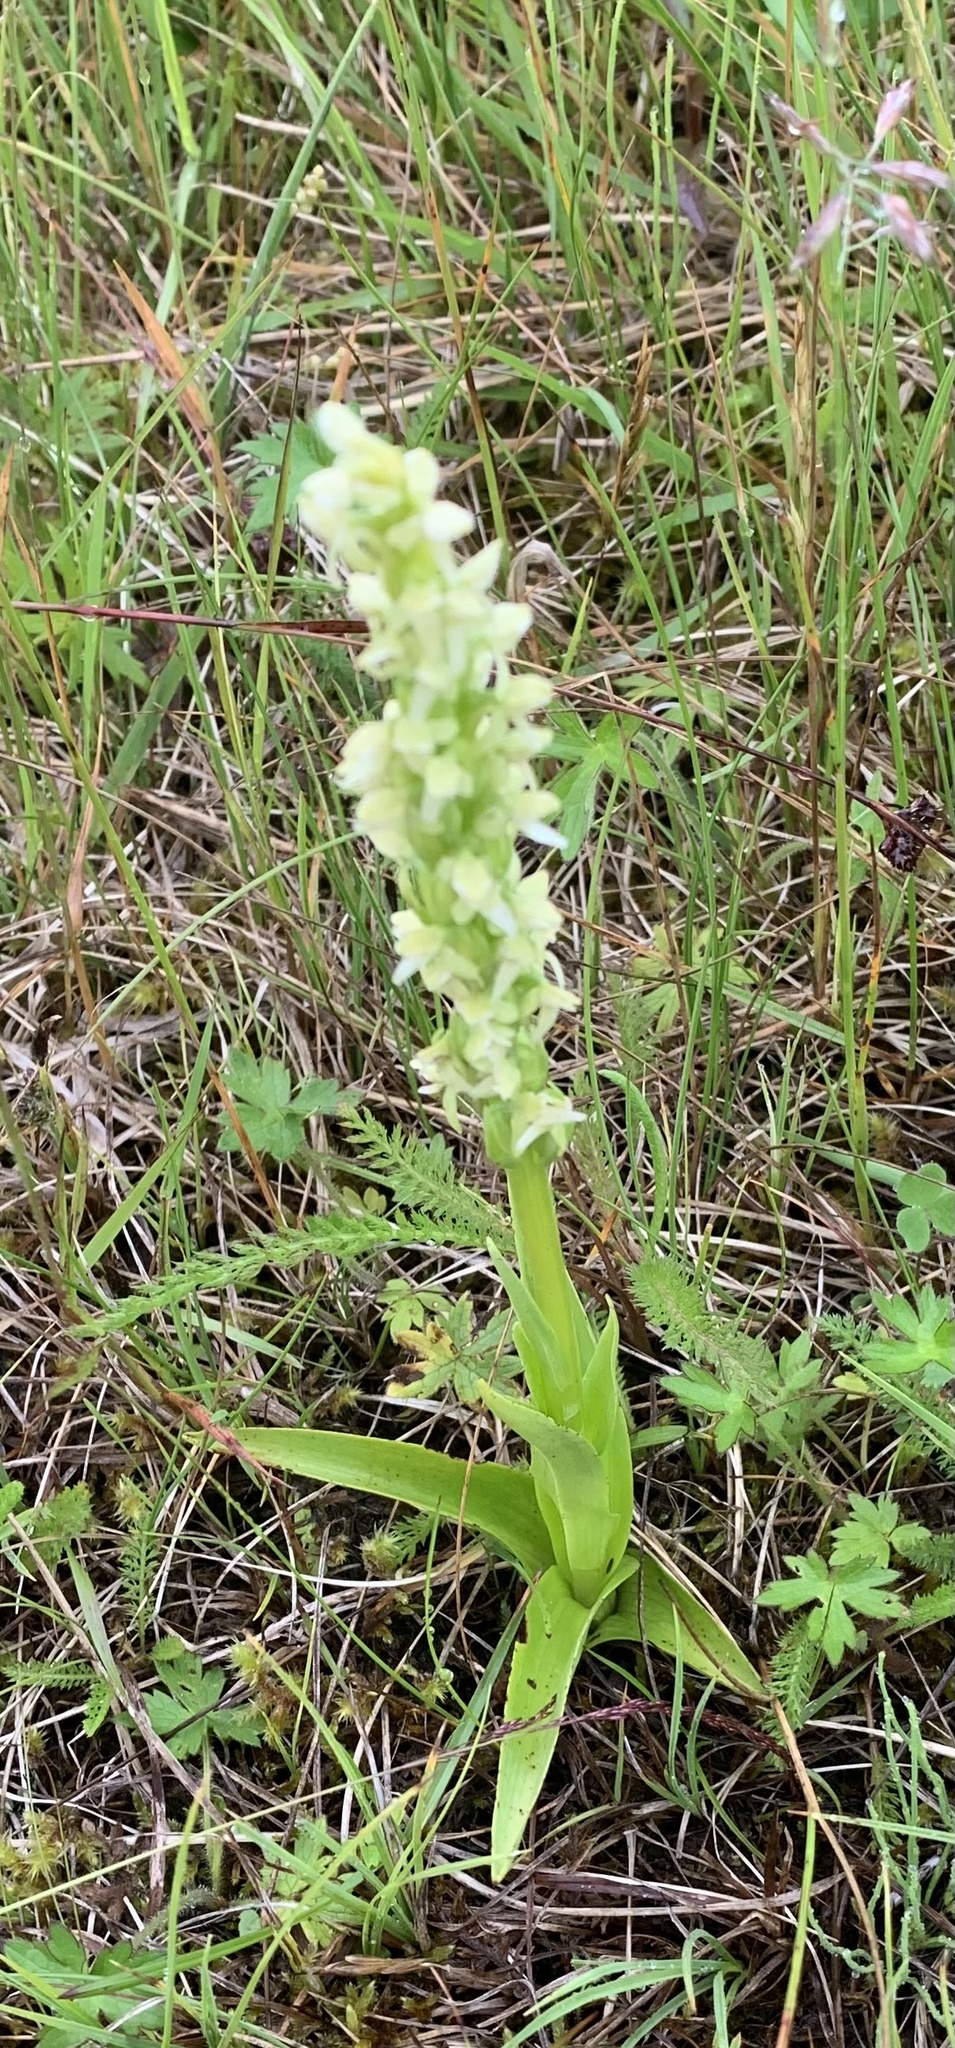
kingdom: Plantae
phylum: Tracheophyta
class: Liliopsida
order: Asparagales
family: Orchidaceae
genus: Platanthera
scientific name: Platanthera huronensis
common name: Fragrant green orchid
